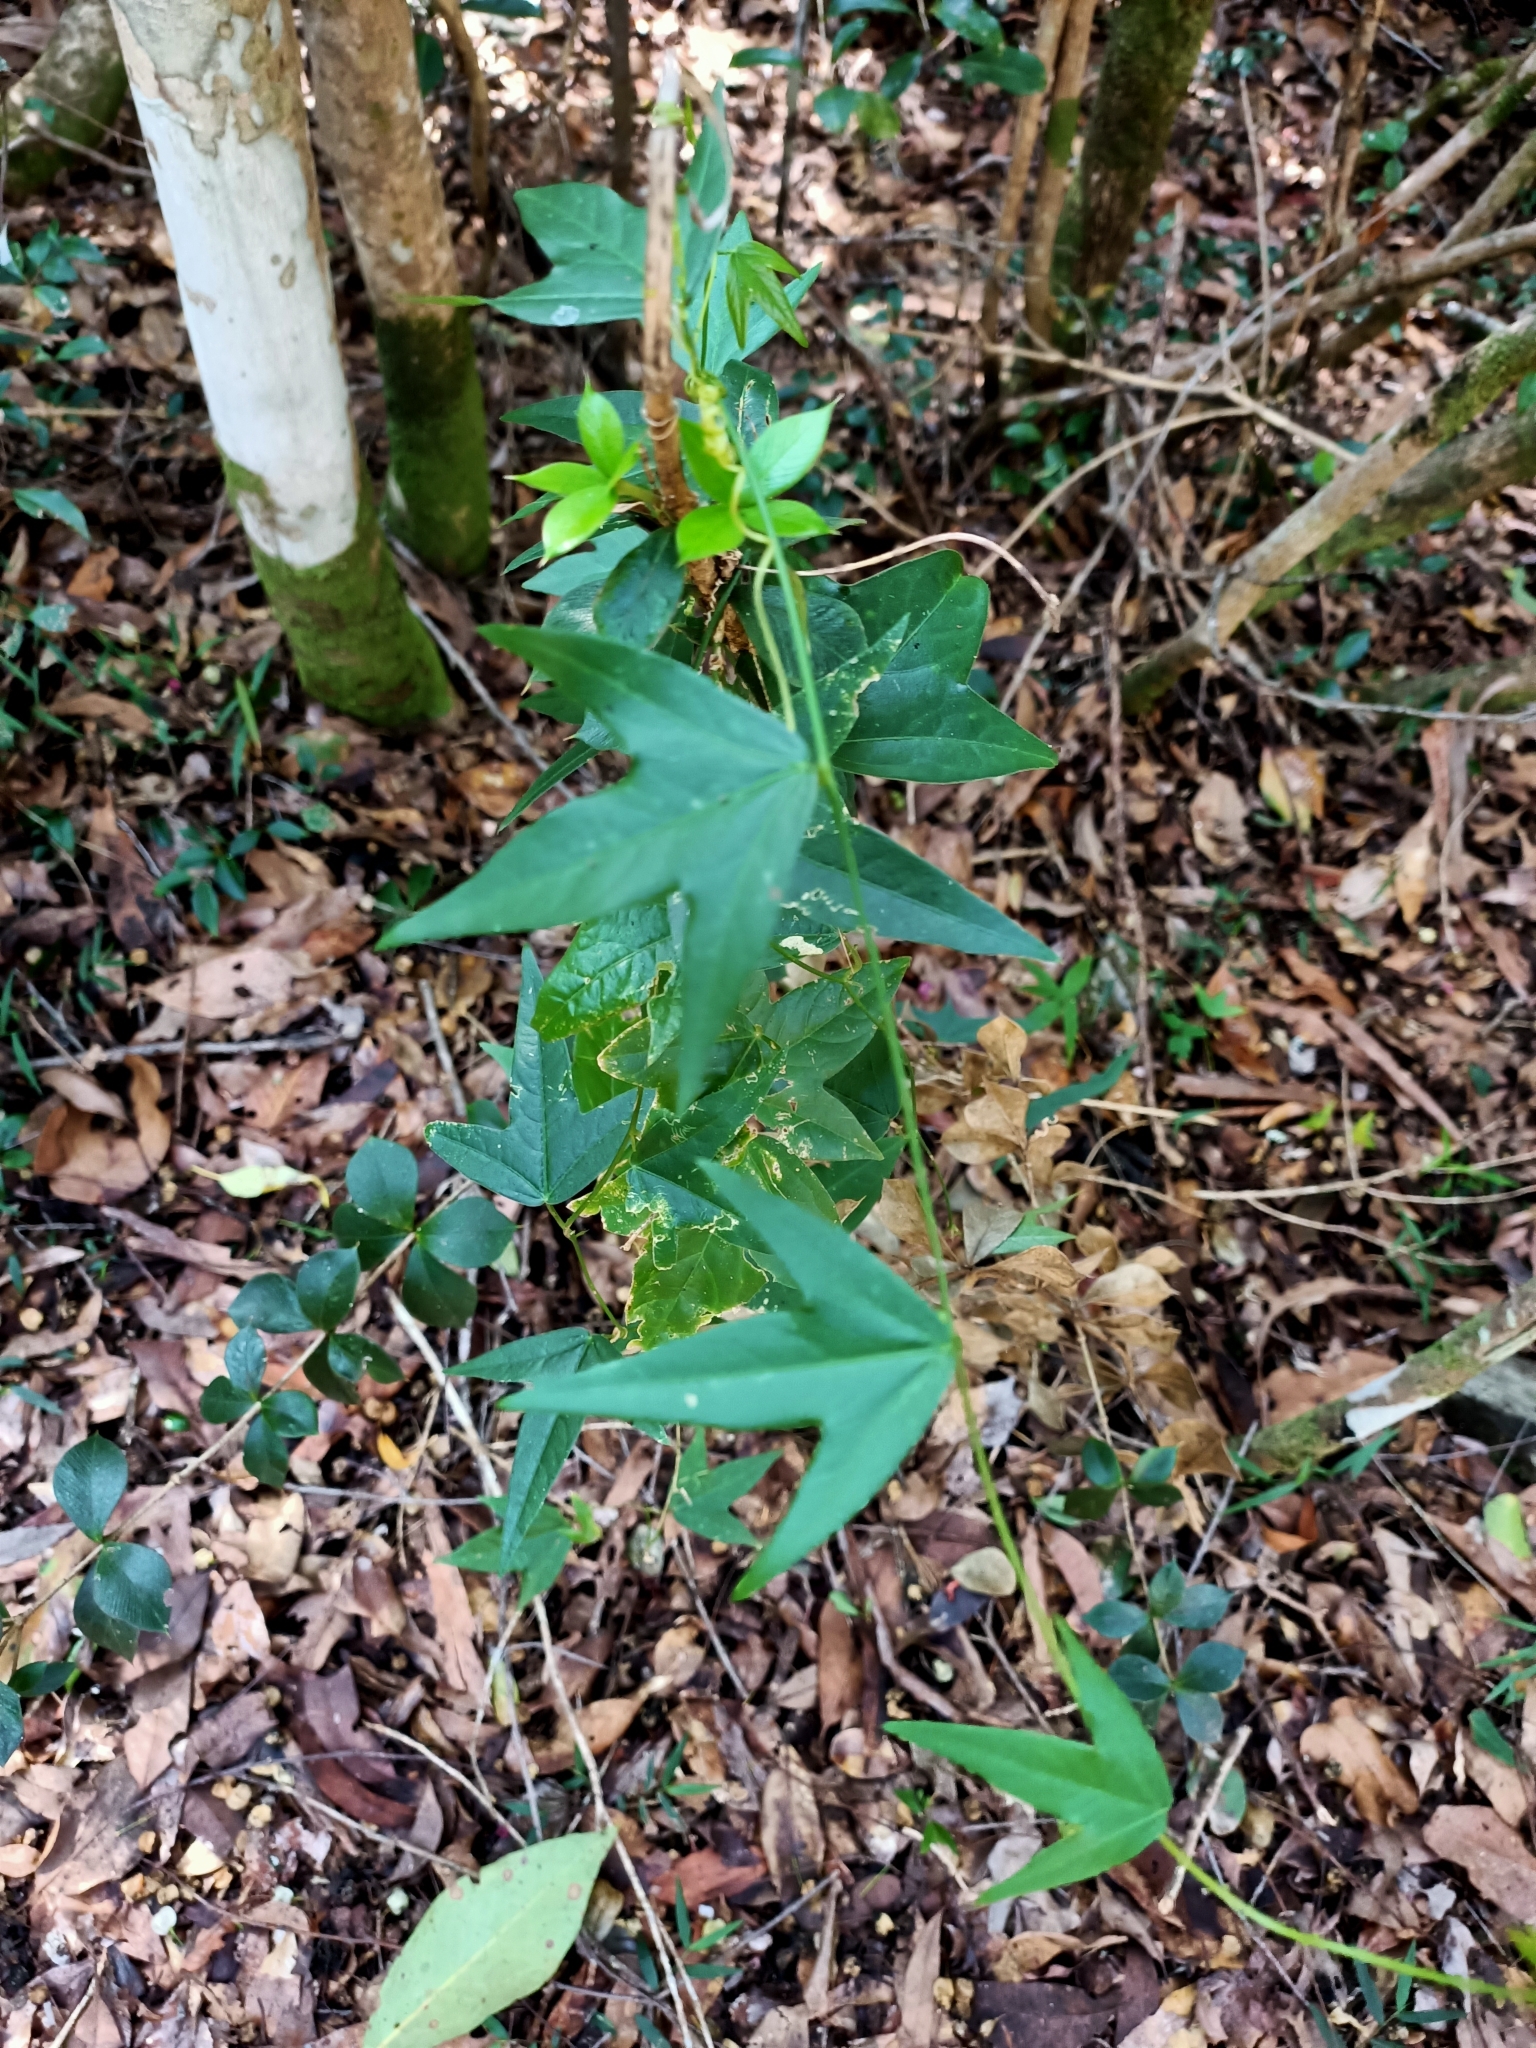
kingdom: Plantae
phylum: Tracheophyta
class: Magnoliopsida
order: Malpighiales
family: Passifloraceae
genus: Passiflora
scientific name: Passiflora suberosa
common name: Wild passionfruit
